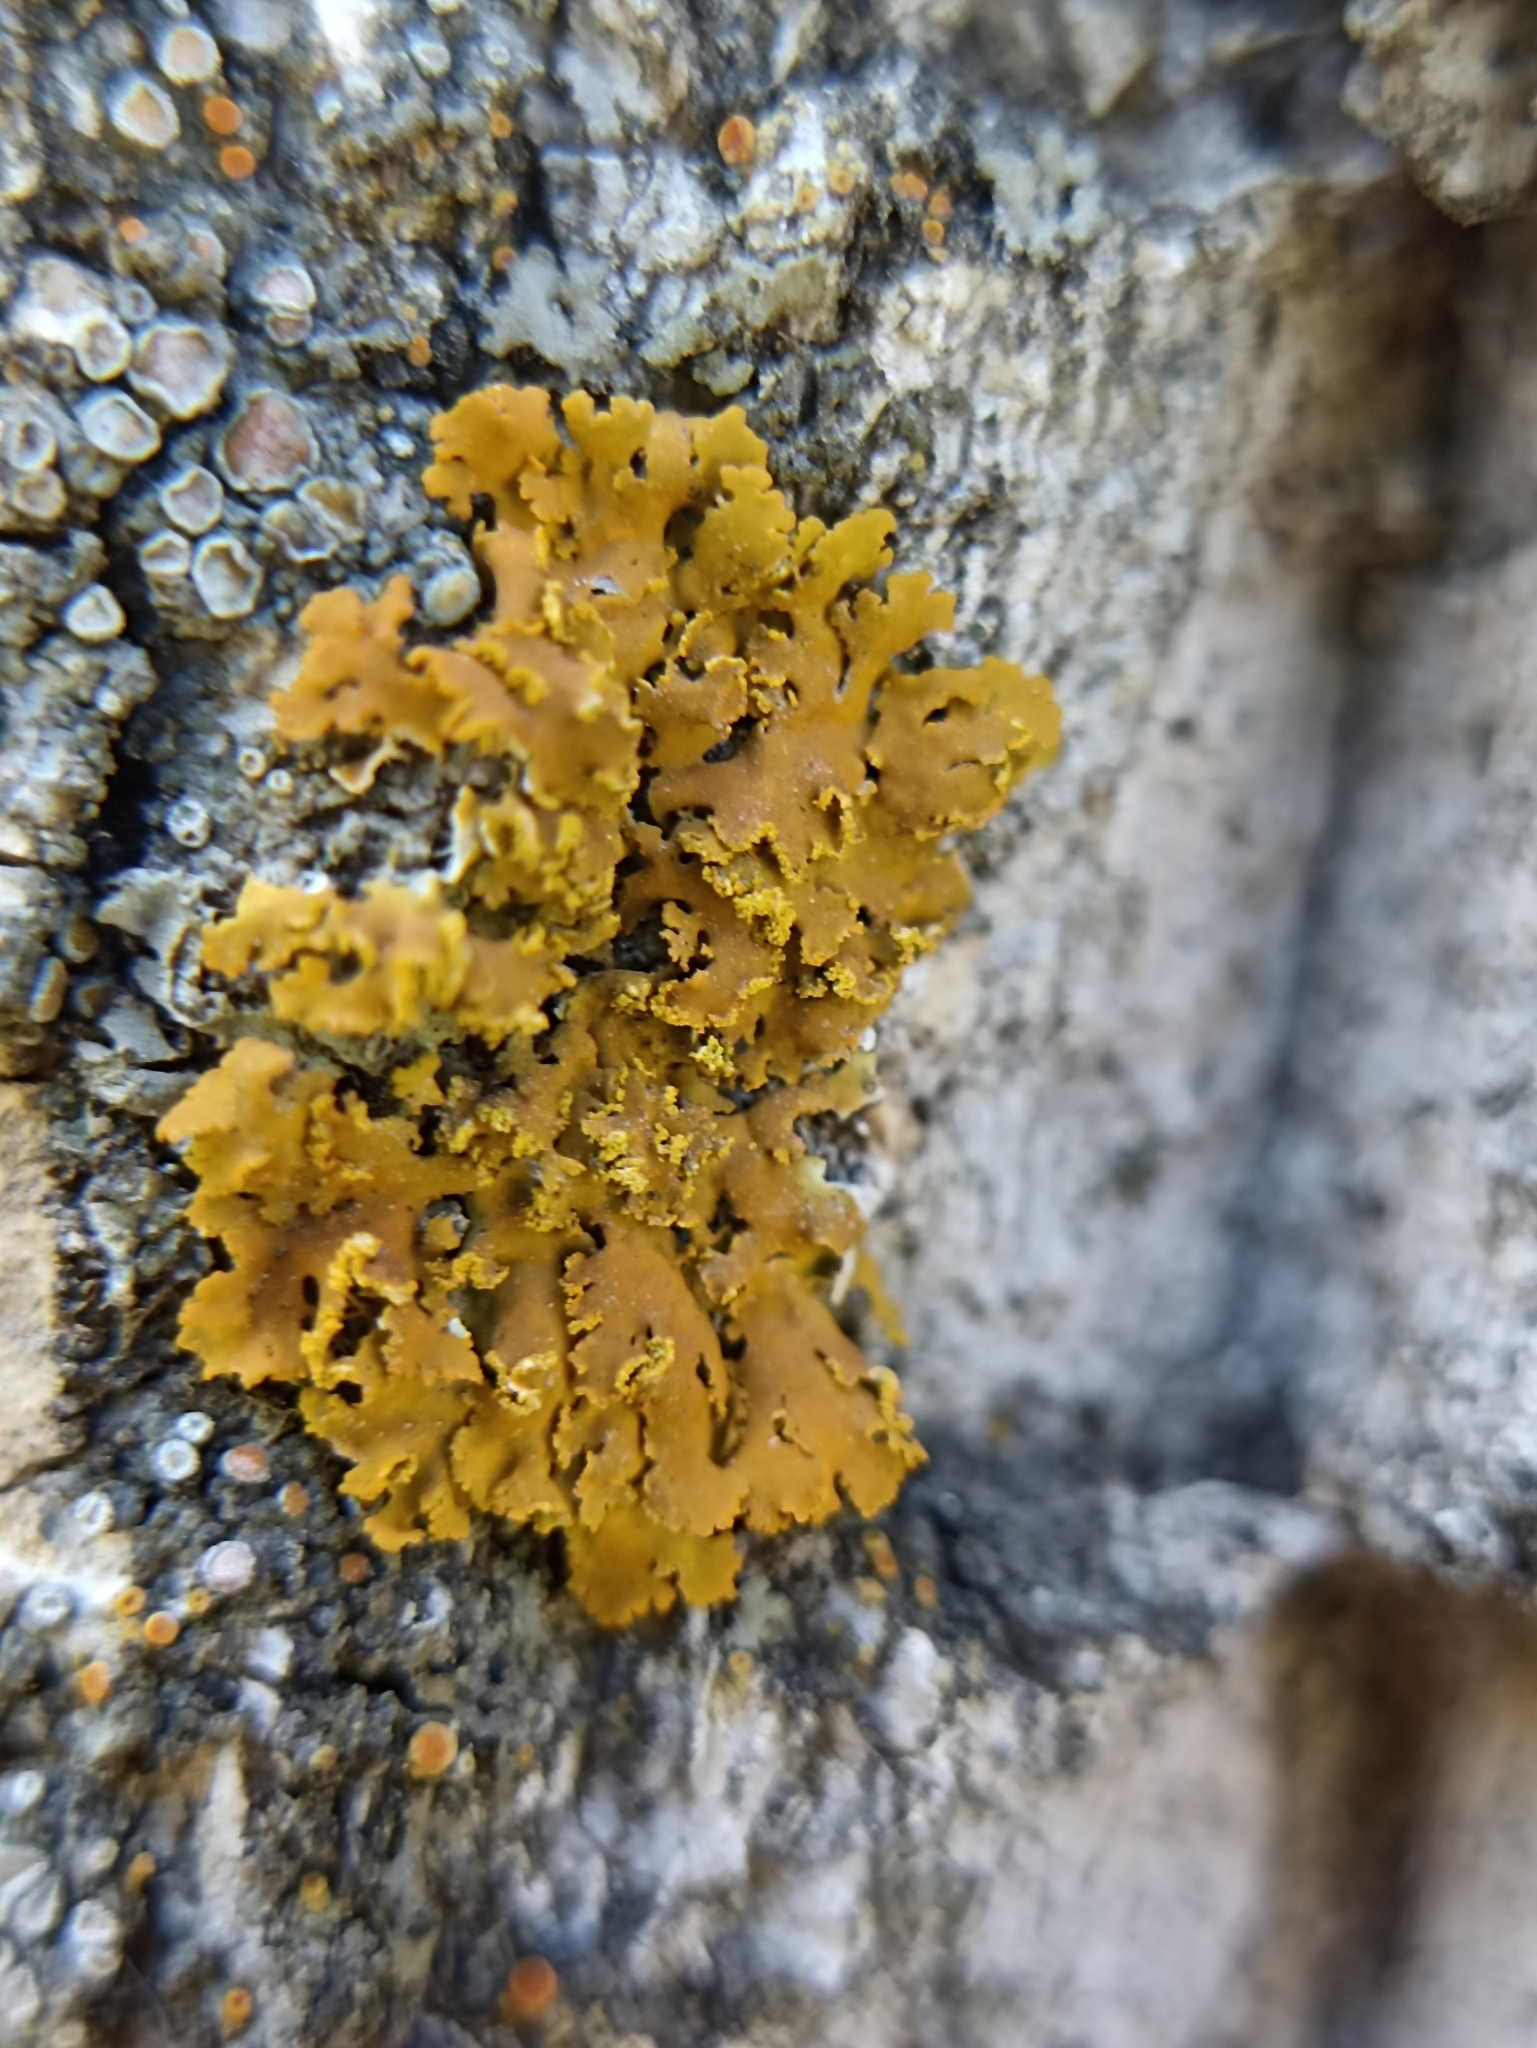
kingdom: Fungi
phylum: Ascomycota
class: Lecanoromycetes
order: Teloschistales
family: Teloschistaceae
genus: Xanthoria
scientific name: Xanthoria ulophyllodes
